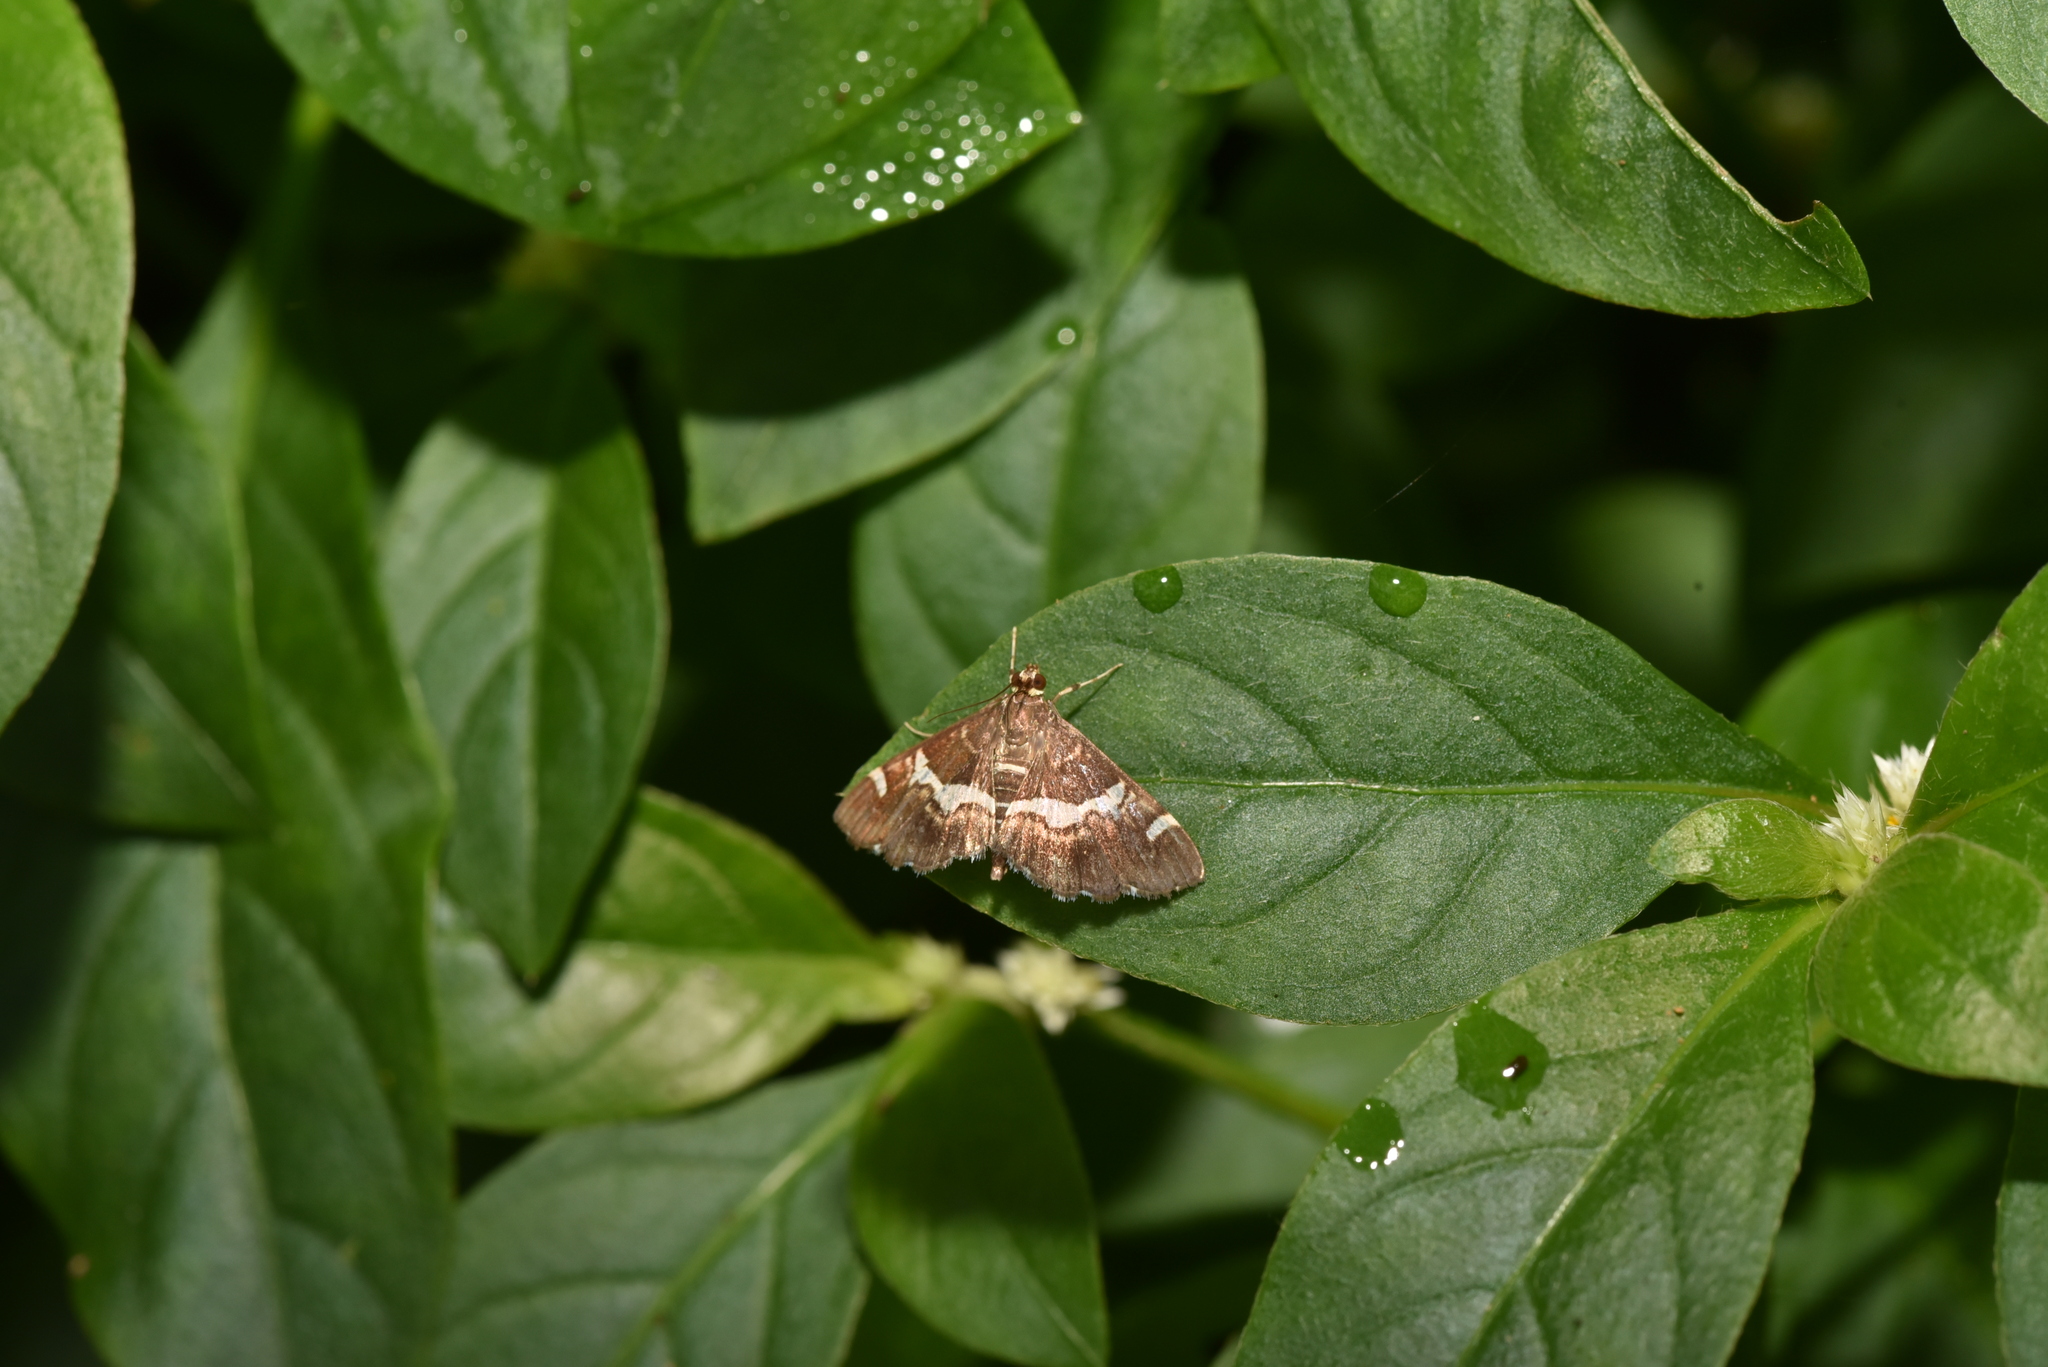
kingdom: Animalia
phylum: Arthropoda
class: Insecta
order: Lepidoptera
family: Crambidae
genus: Spoladea
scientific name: Spoladea recurvalis
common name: Beet webworm moth
